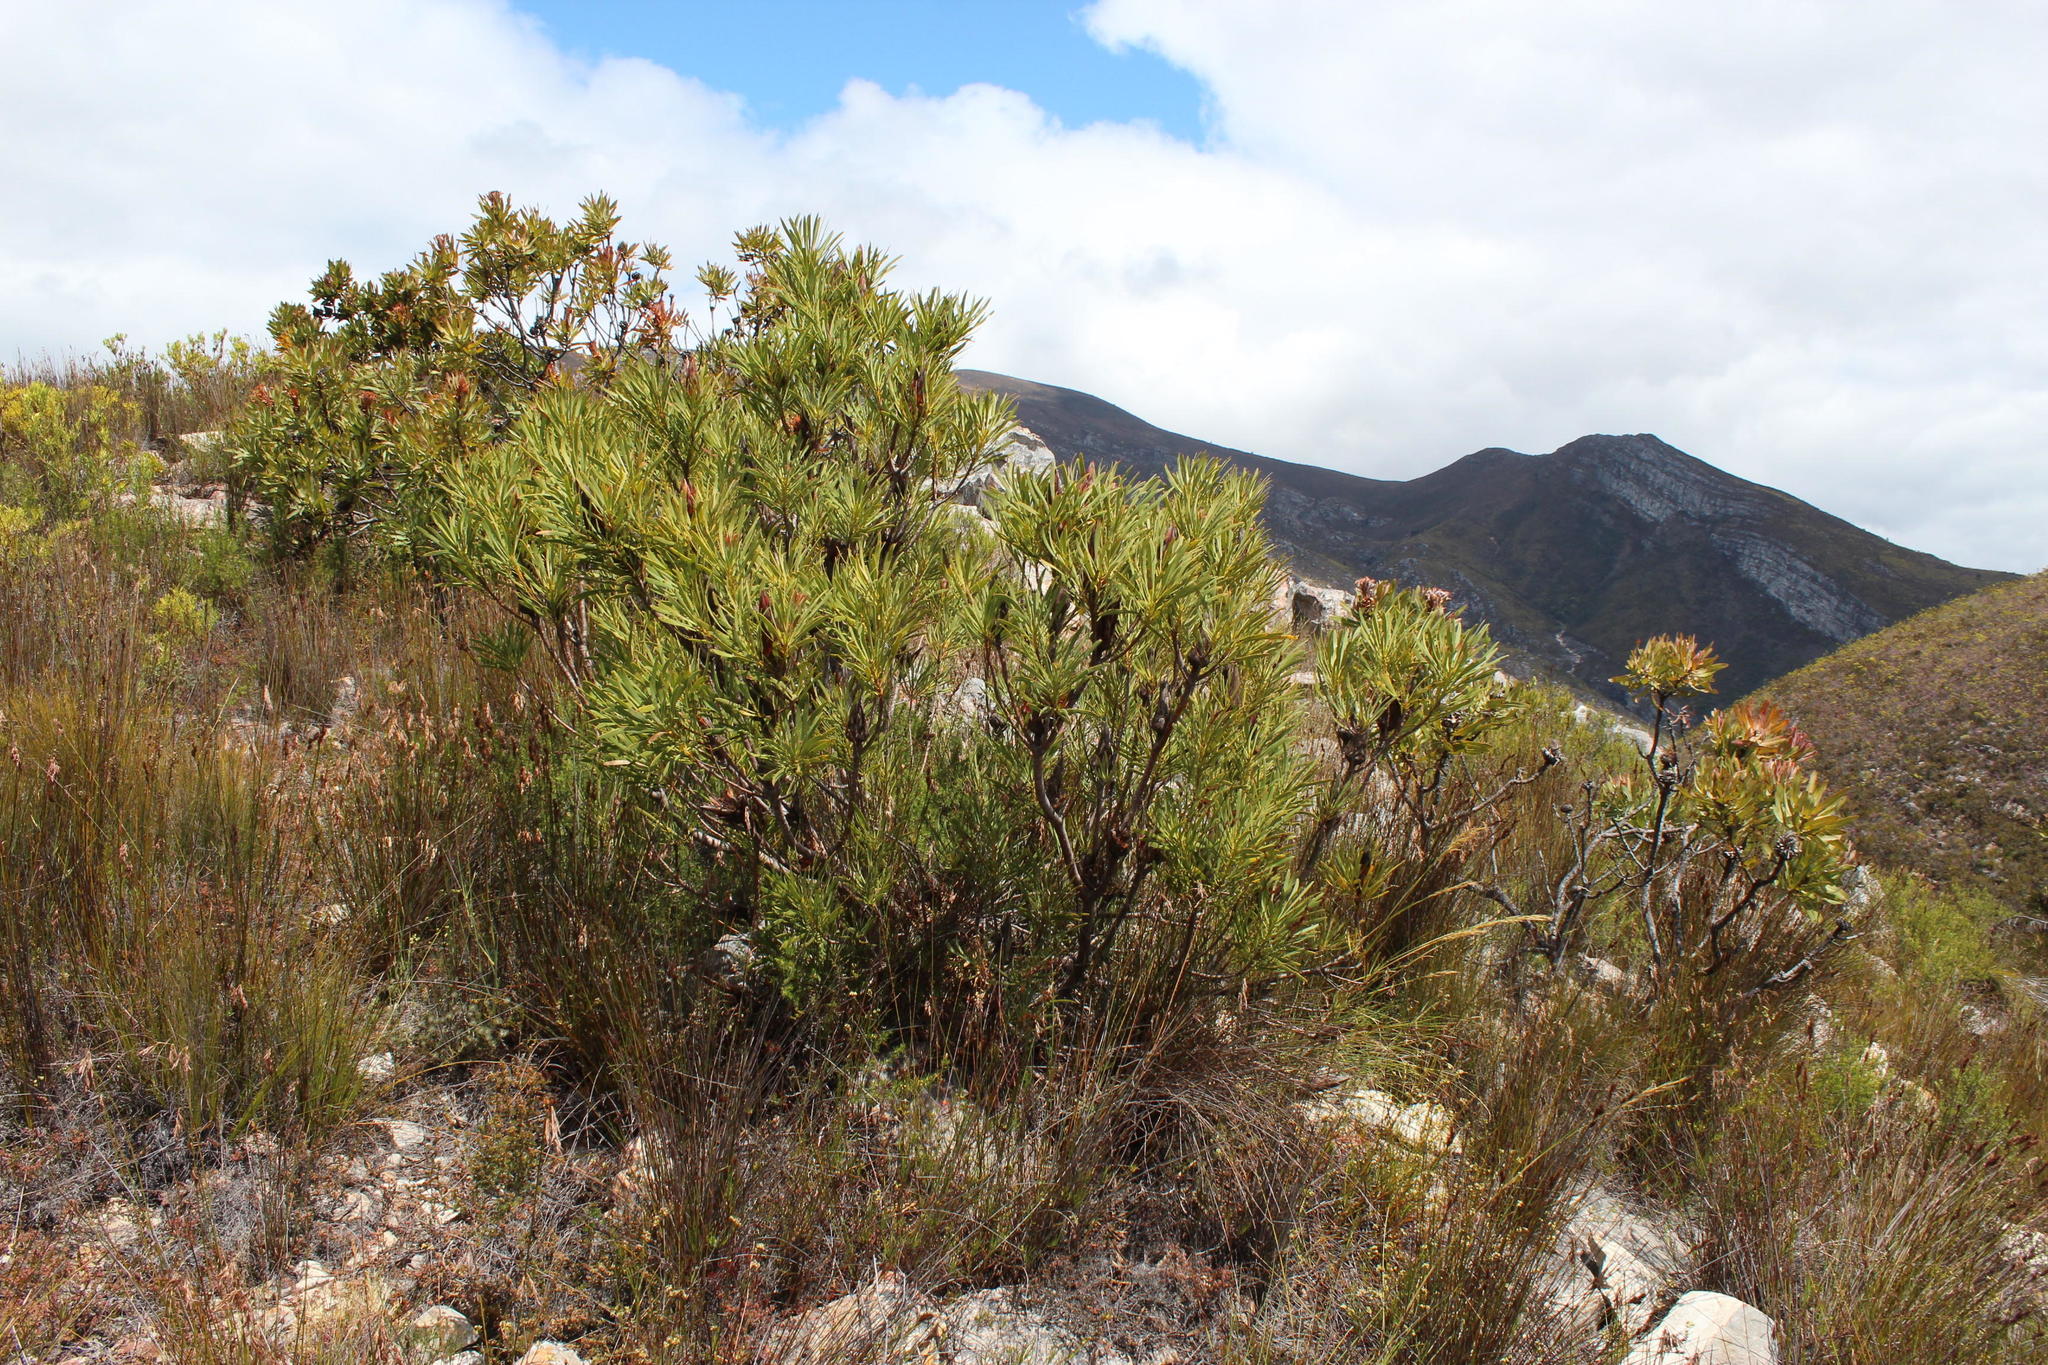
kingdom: Plantae
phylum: Tracheophyta
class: Magnoliopsida
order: Proteales
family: Proteaceae
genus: Protea
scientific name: Protea repens
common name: Sugarbush
